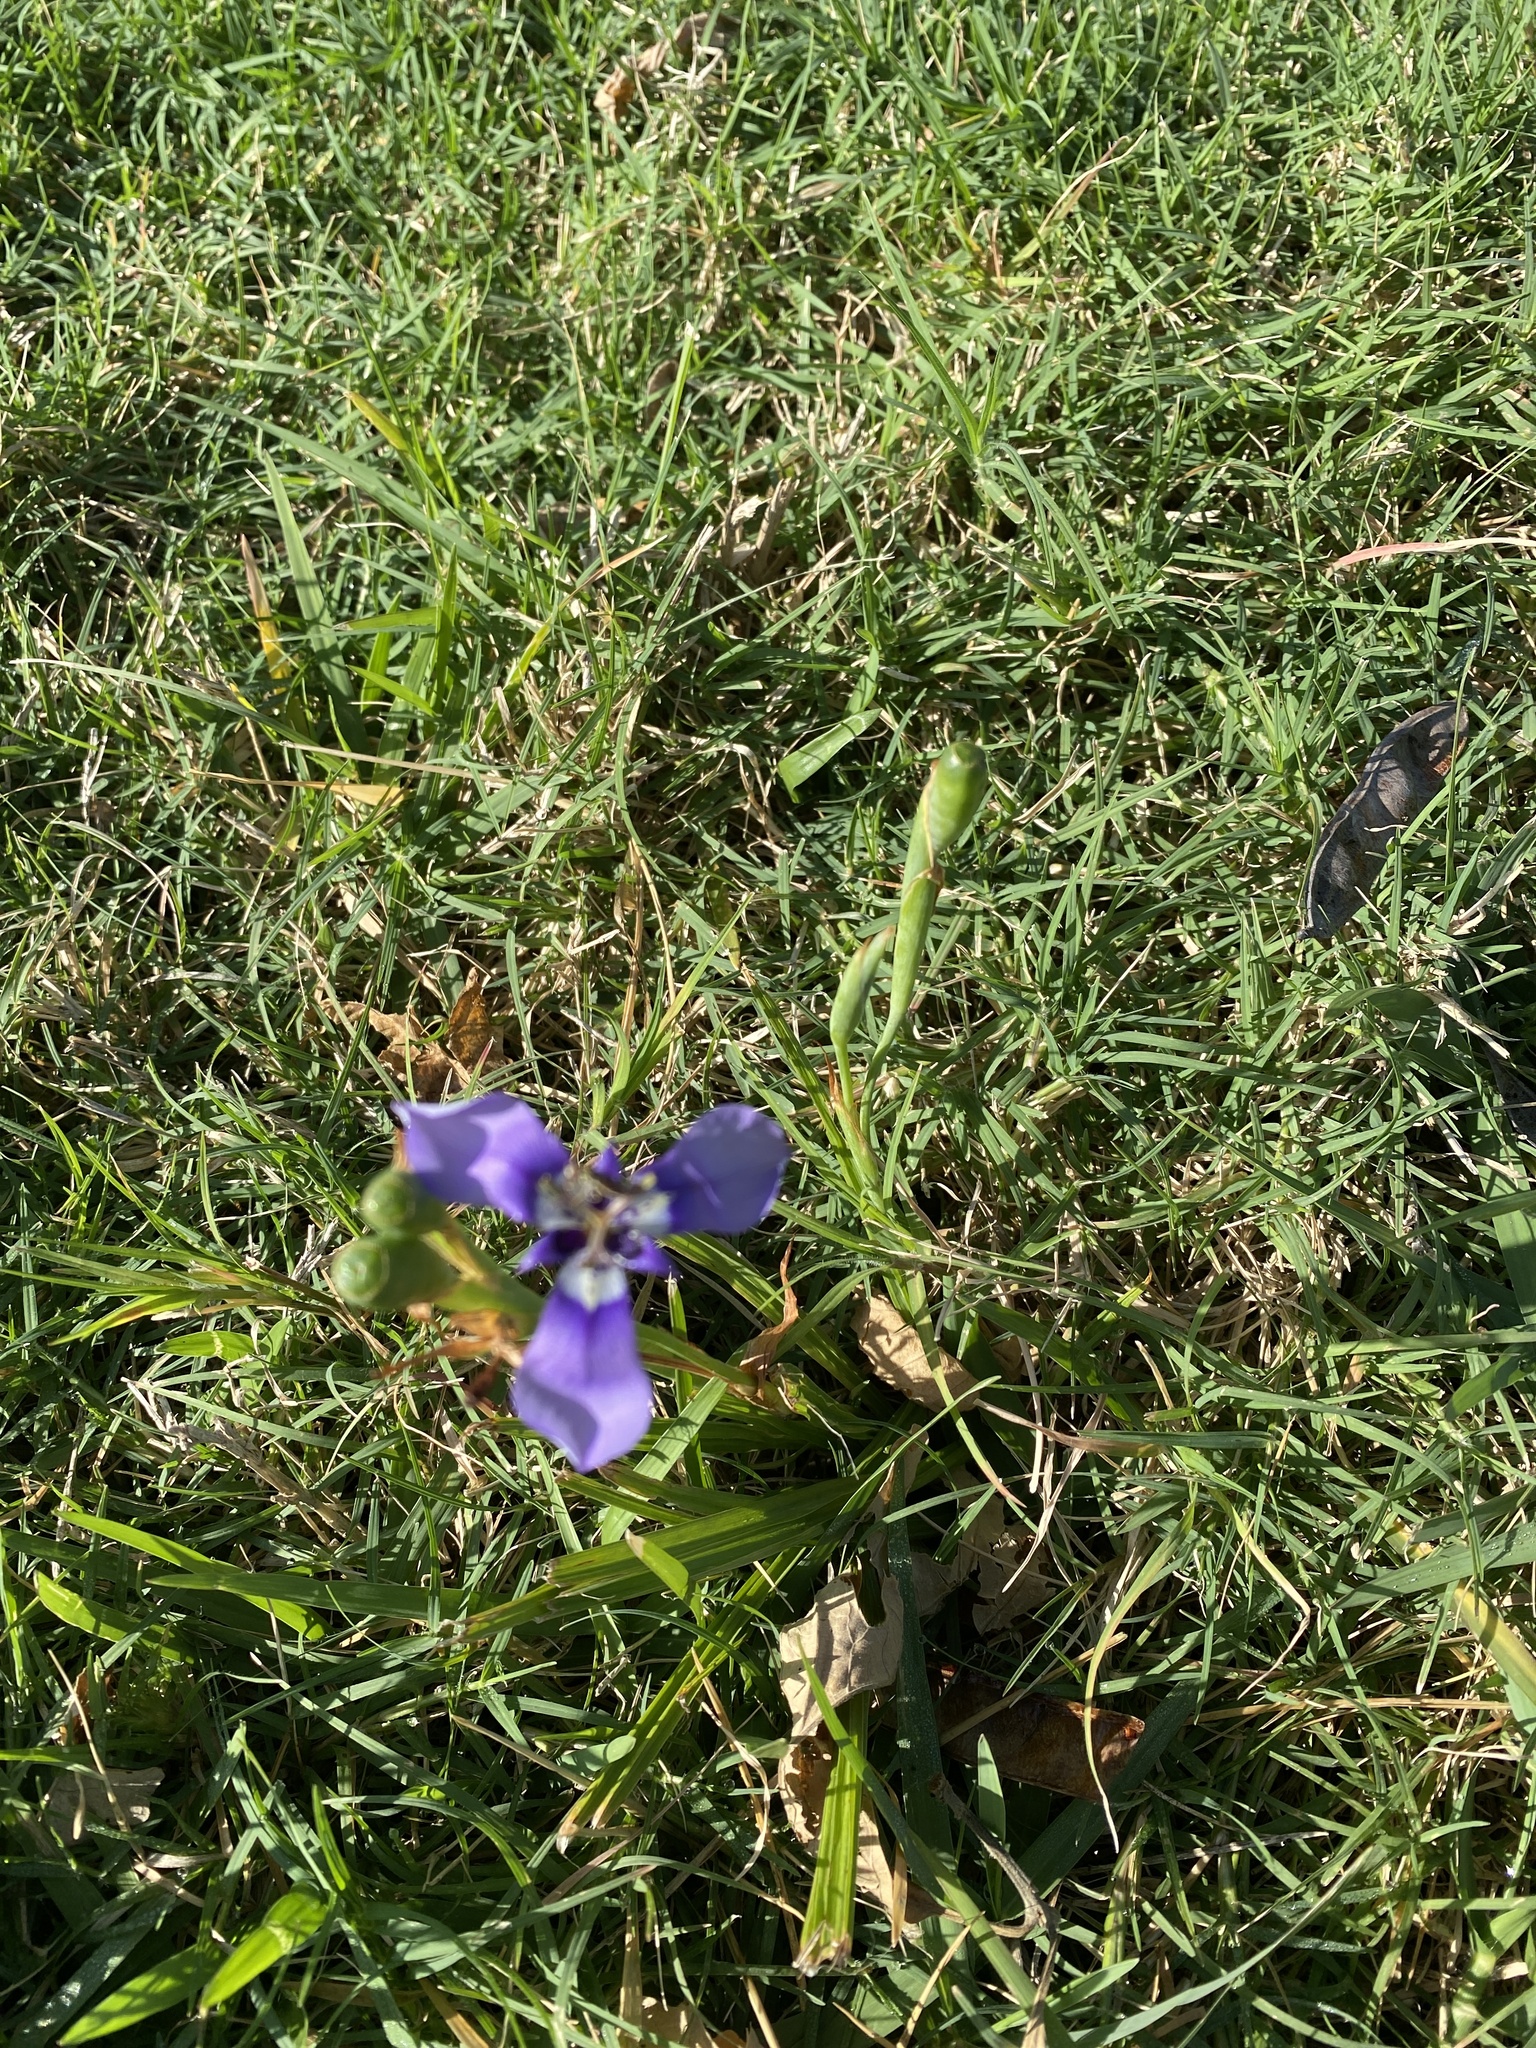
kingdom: Plantae
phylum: Tracheophyta
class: Liliopsida
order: Asparagales
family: Iridaceae
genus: Herbertia
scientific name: Herbertia lahue
